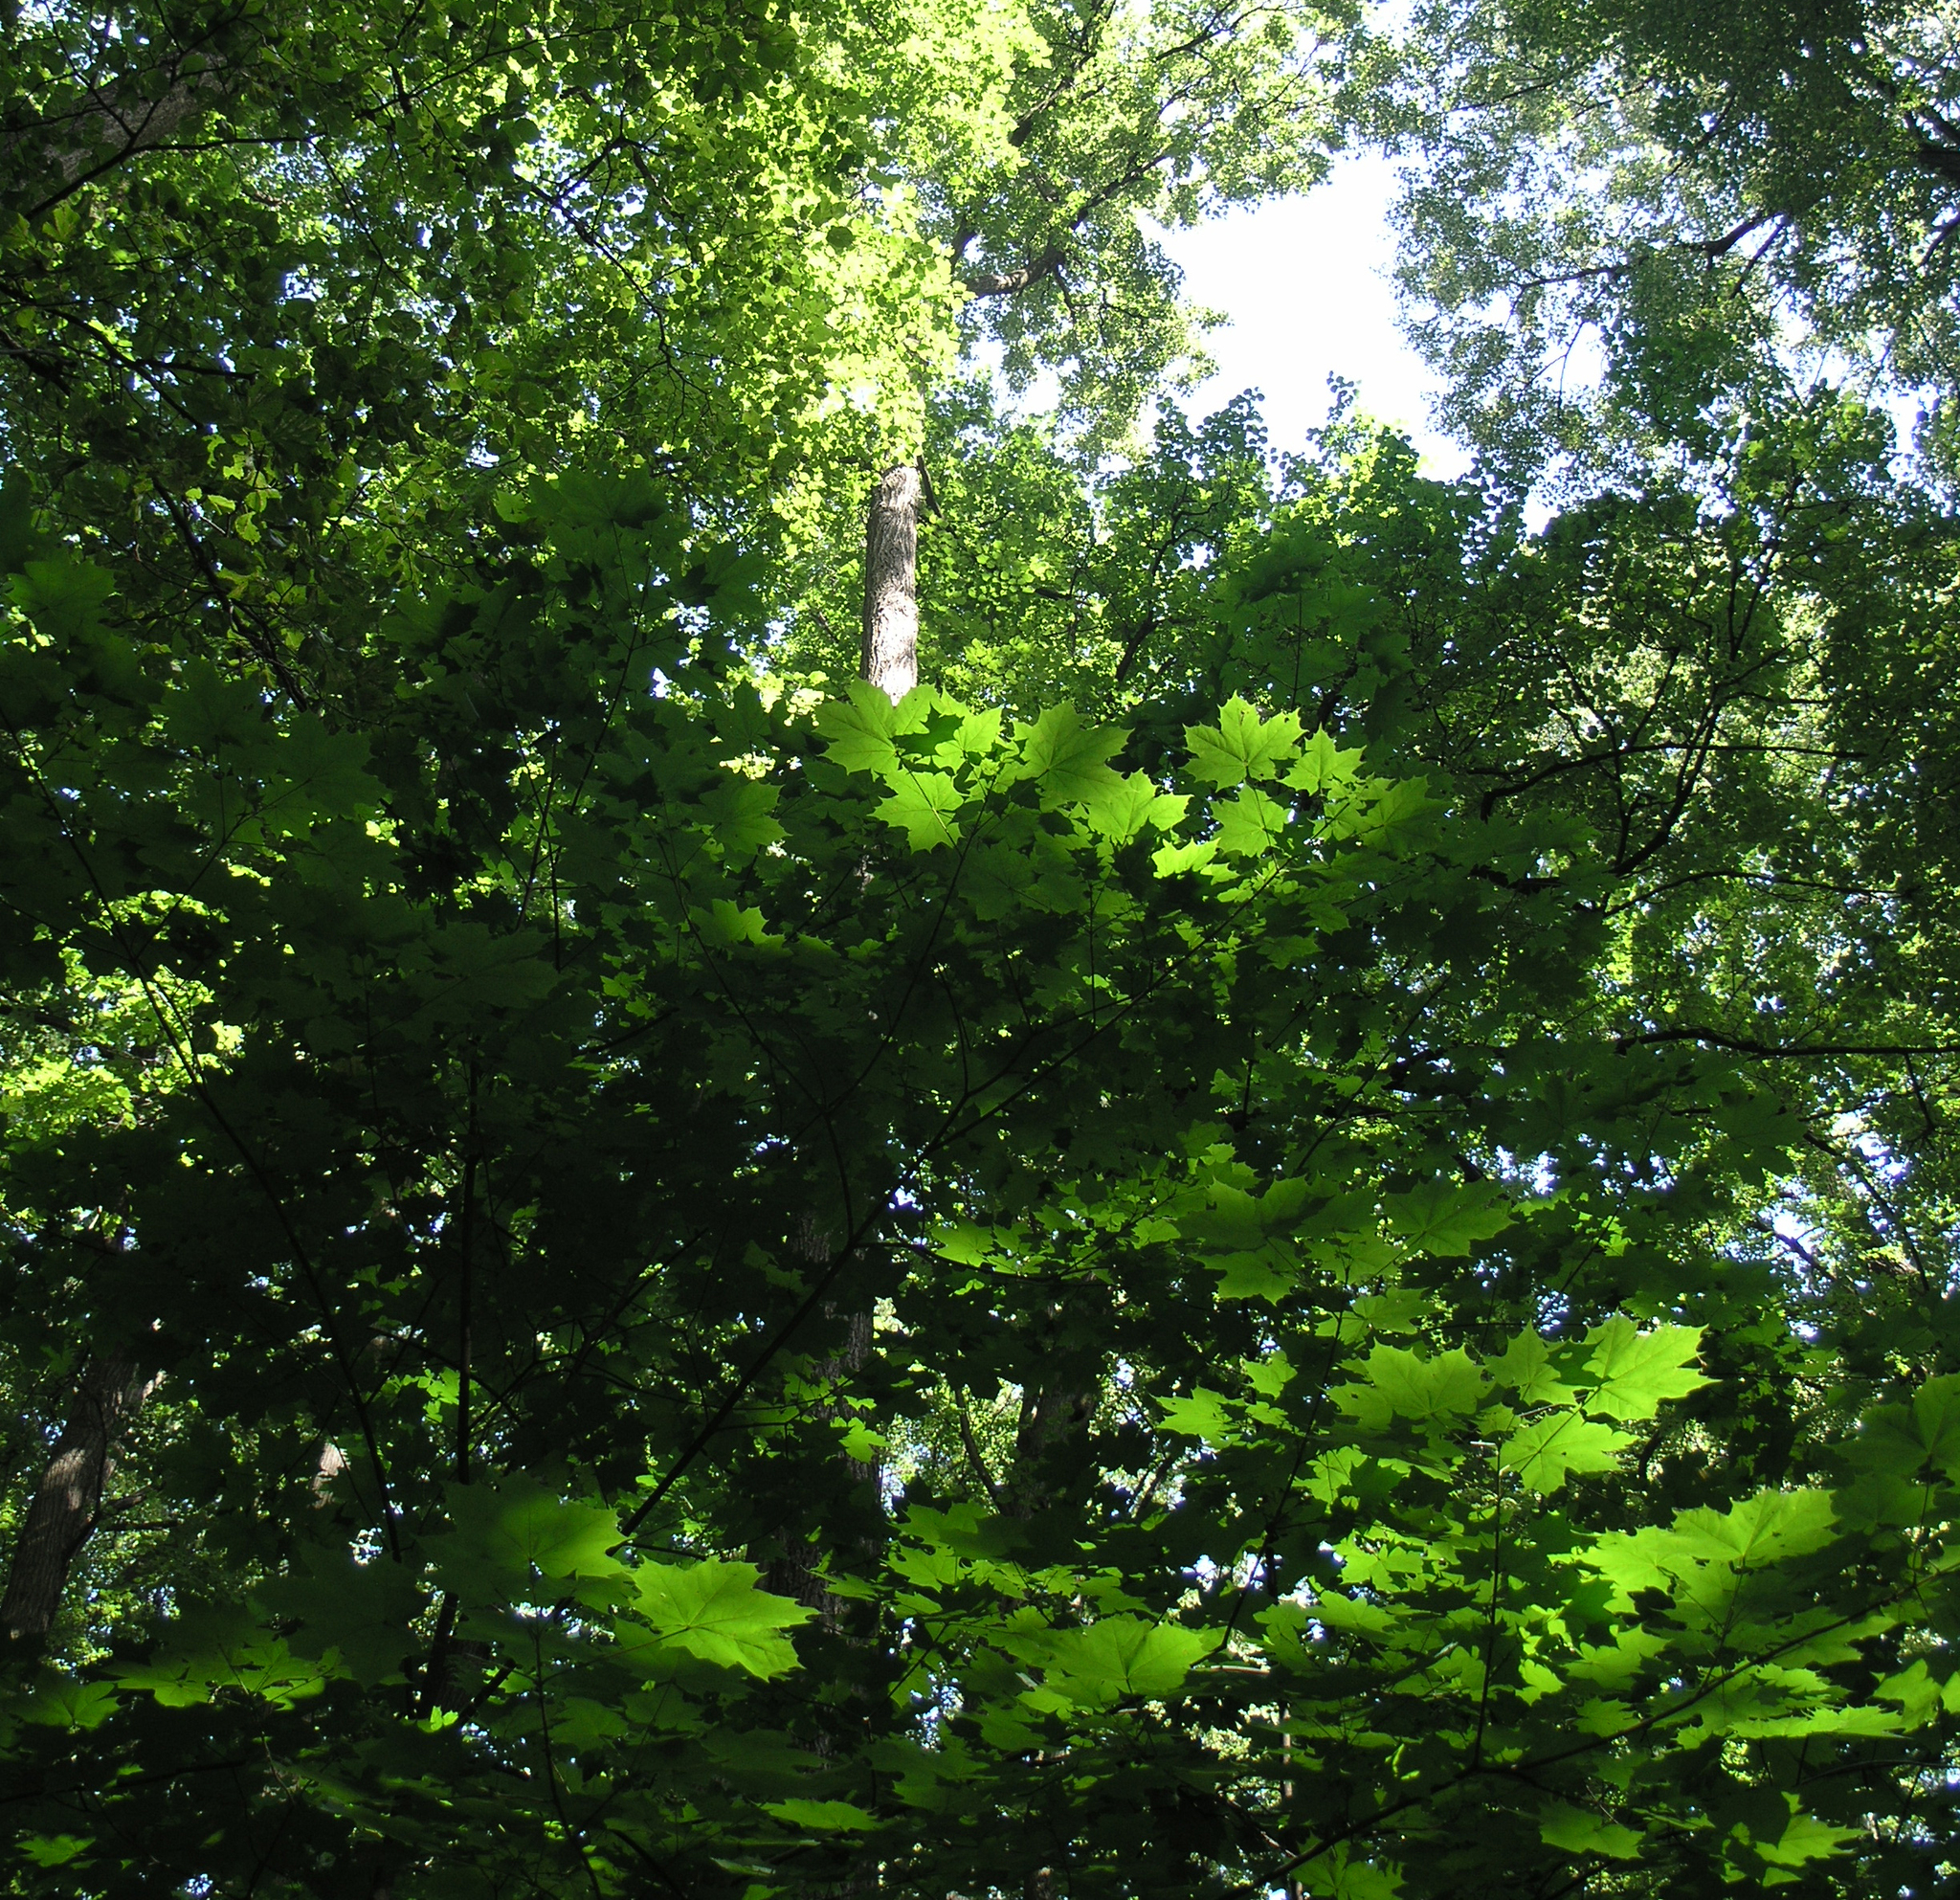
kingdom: Plantae
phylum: Tracheophyta
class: Magnoliopsida
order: Sapindales
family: Sapindaceae
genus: Acer
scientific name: Acer platanoides
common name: Norway maple
